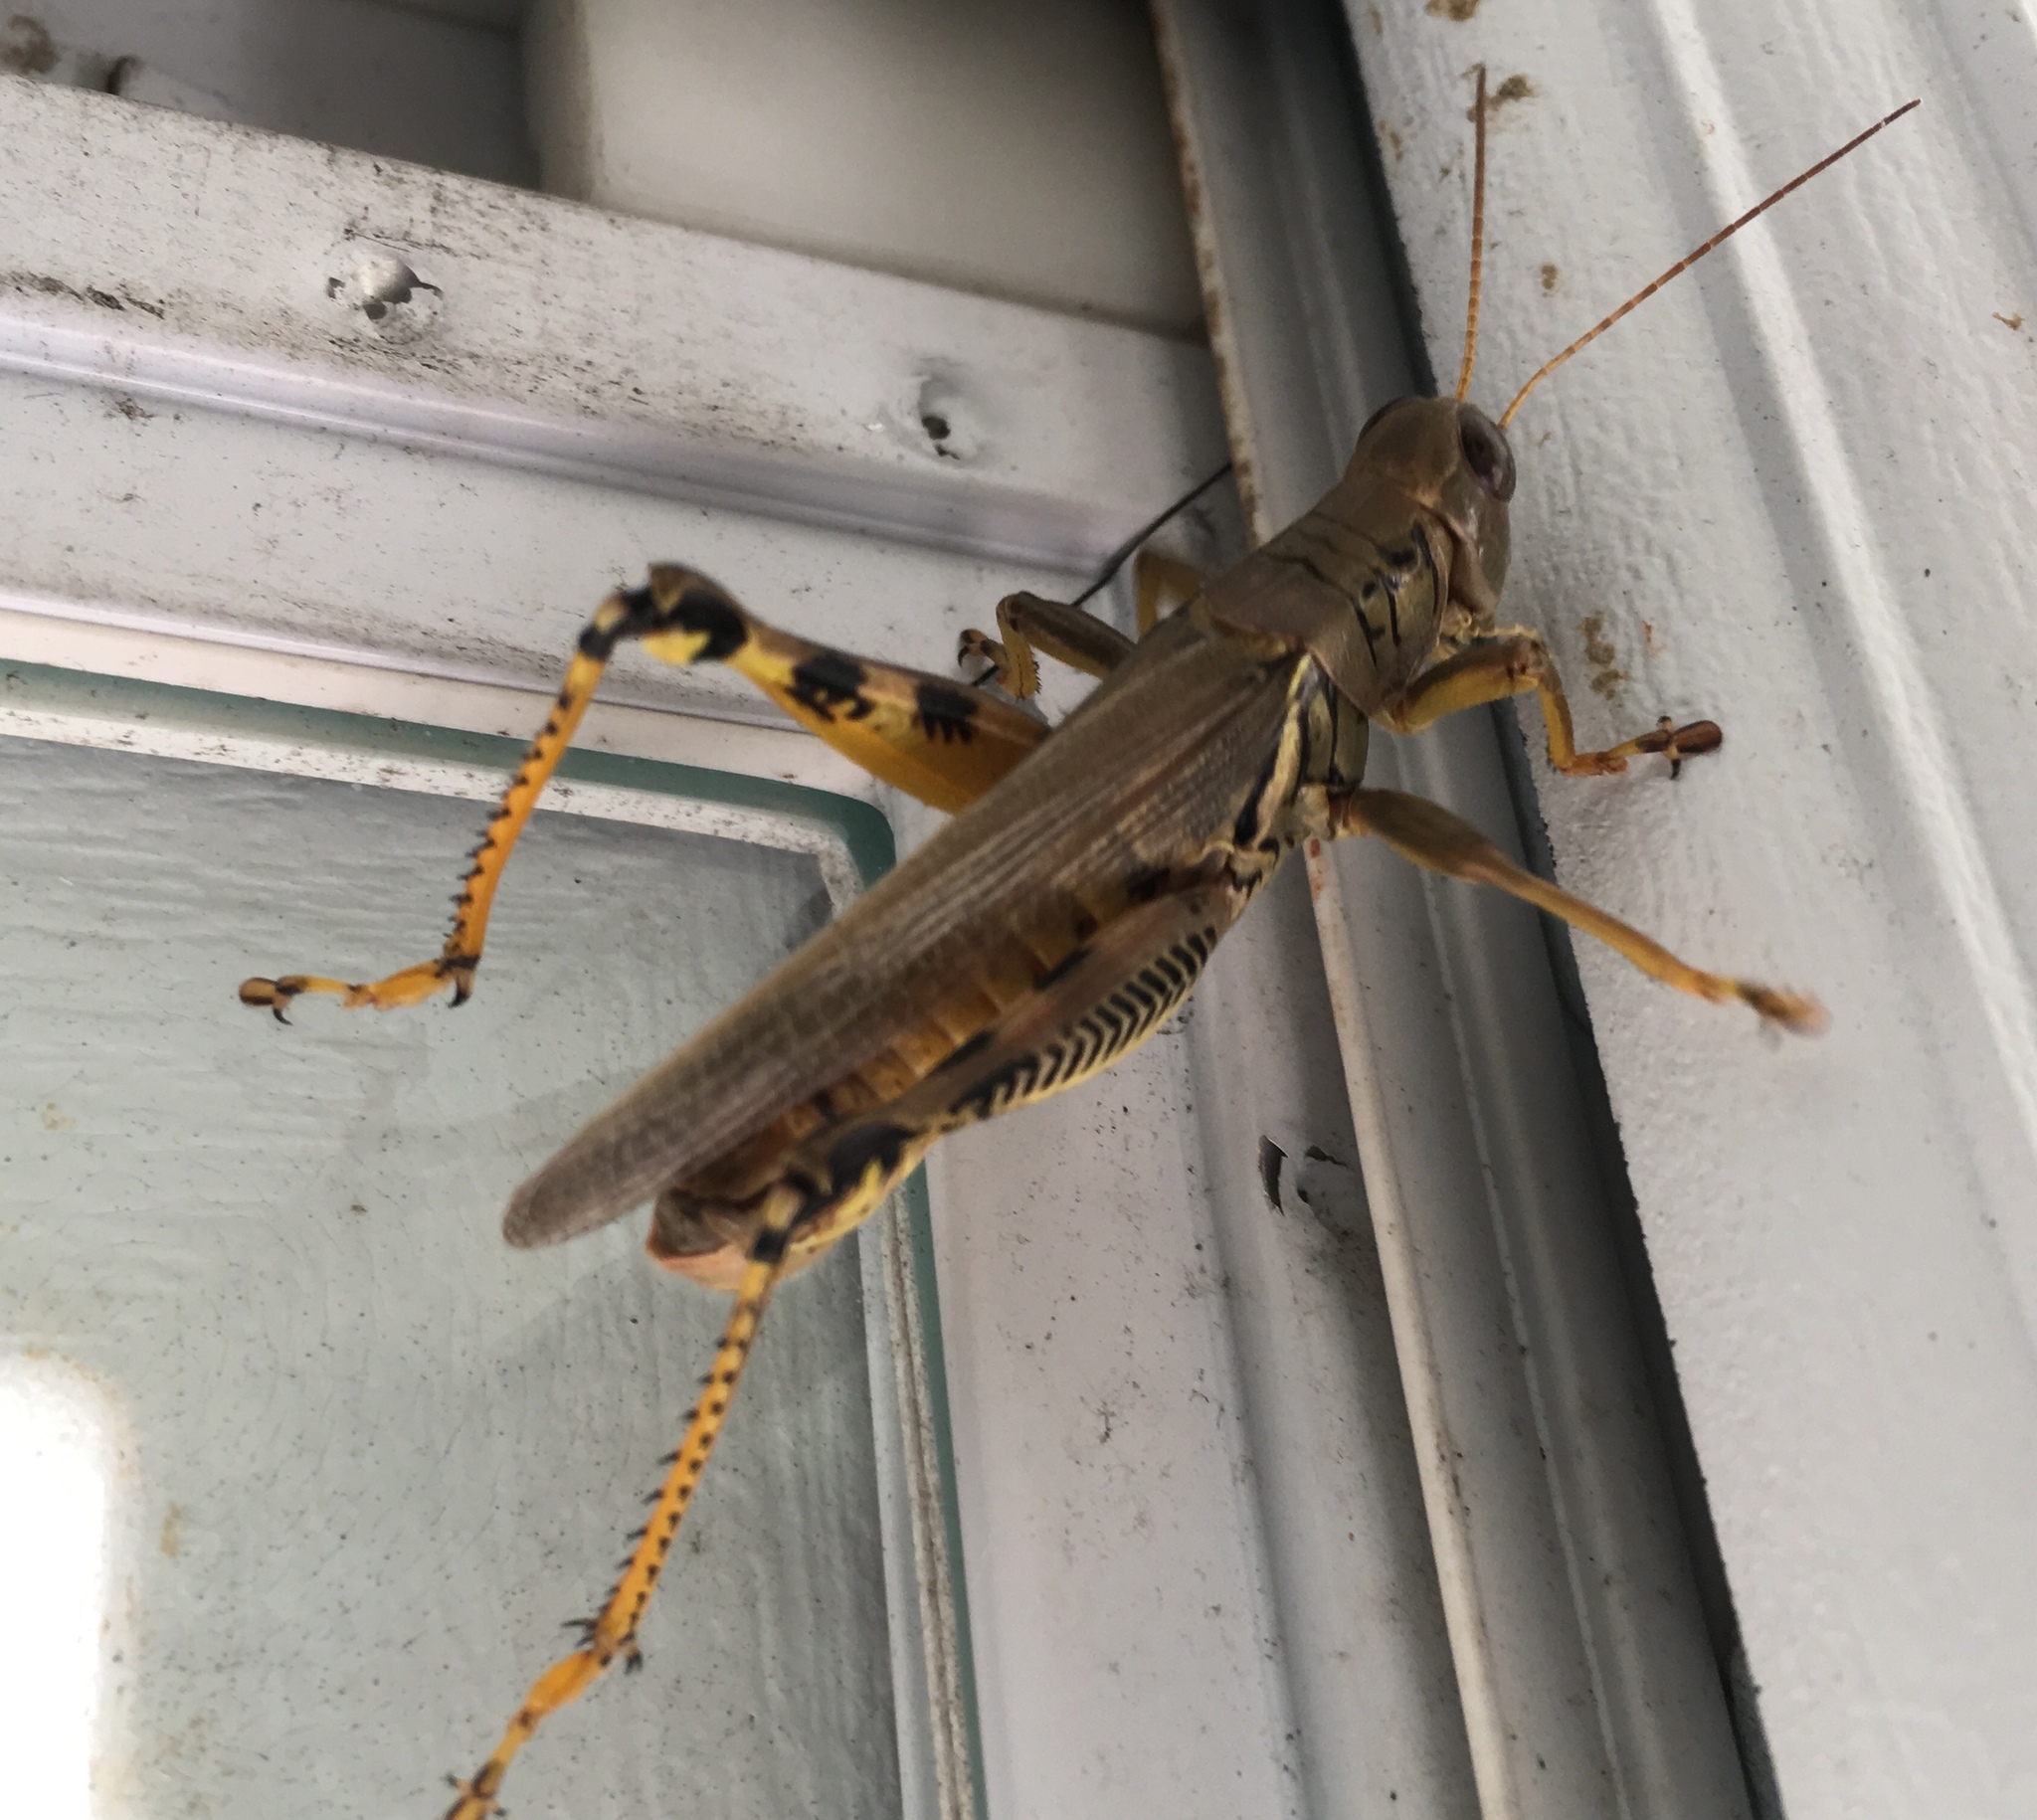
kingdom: Animalia
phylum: Arthropoda
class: Insecta
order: Orthoptera
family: Acrididae
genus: Melanoplus
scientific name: Melanoplus differentialis
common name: Differential grasshopper
